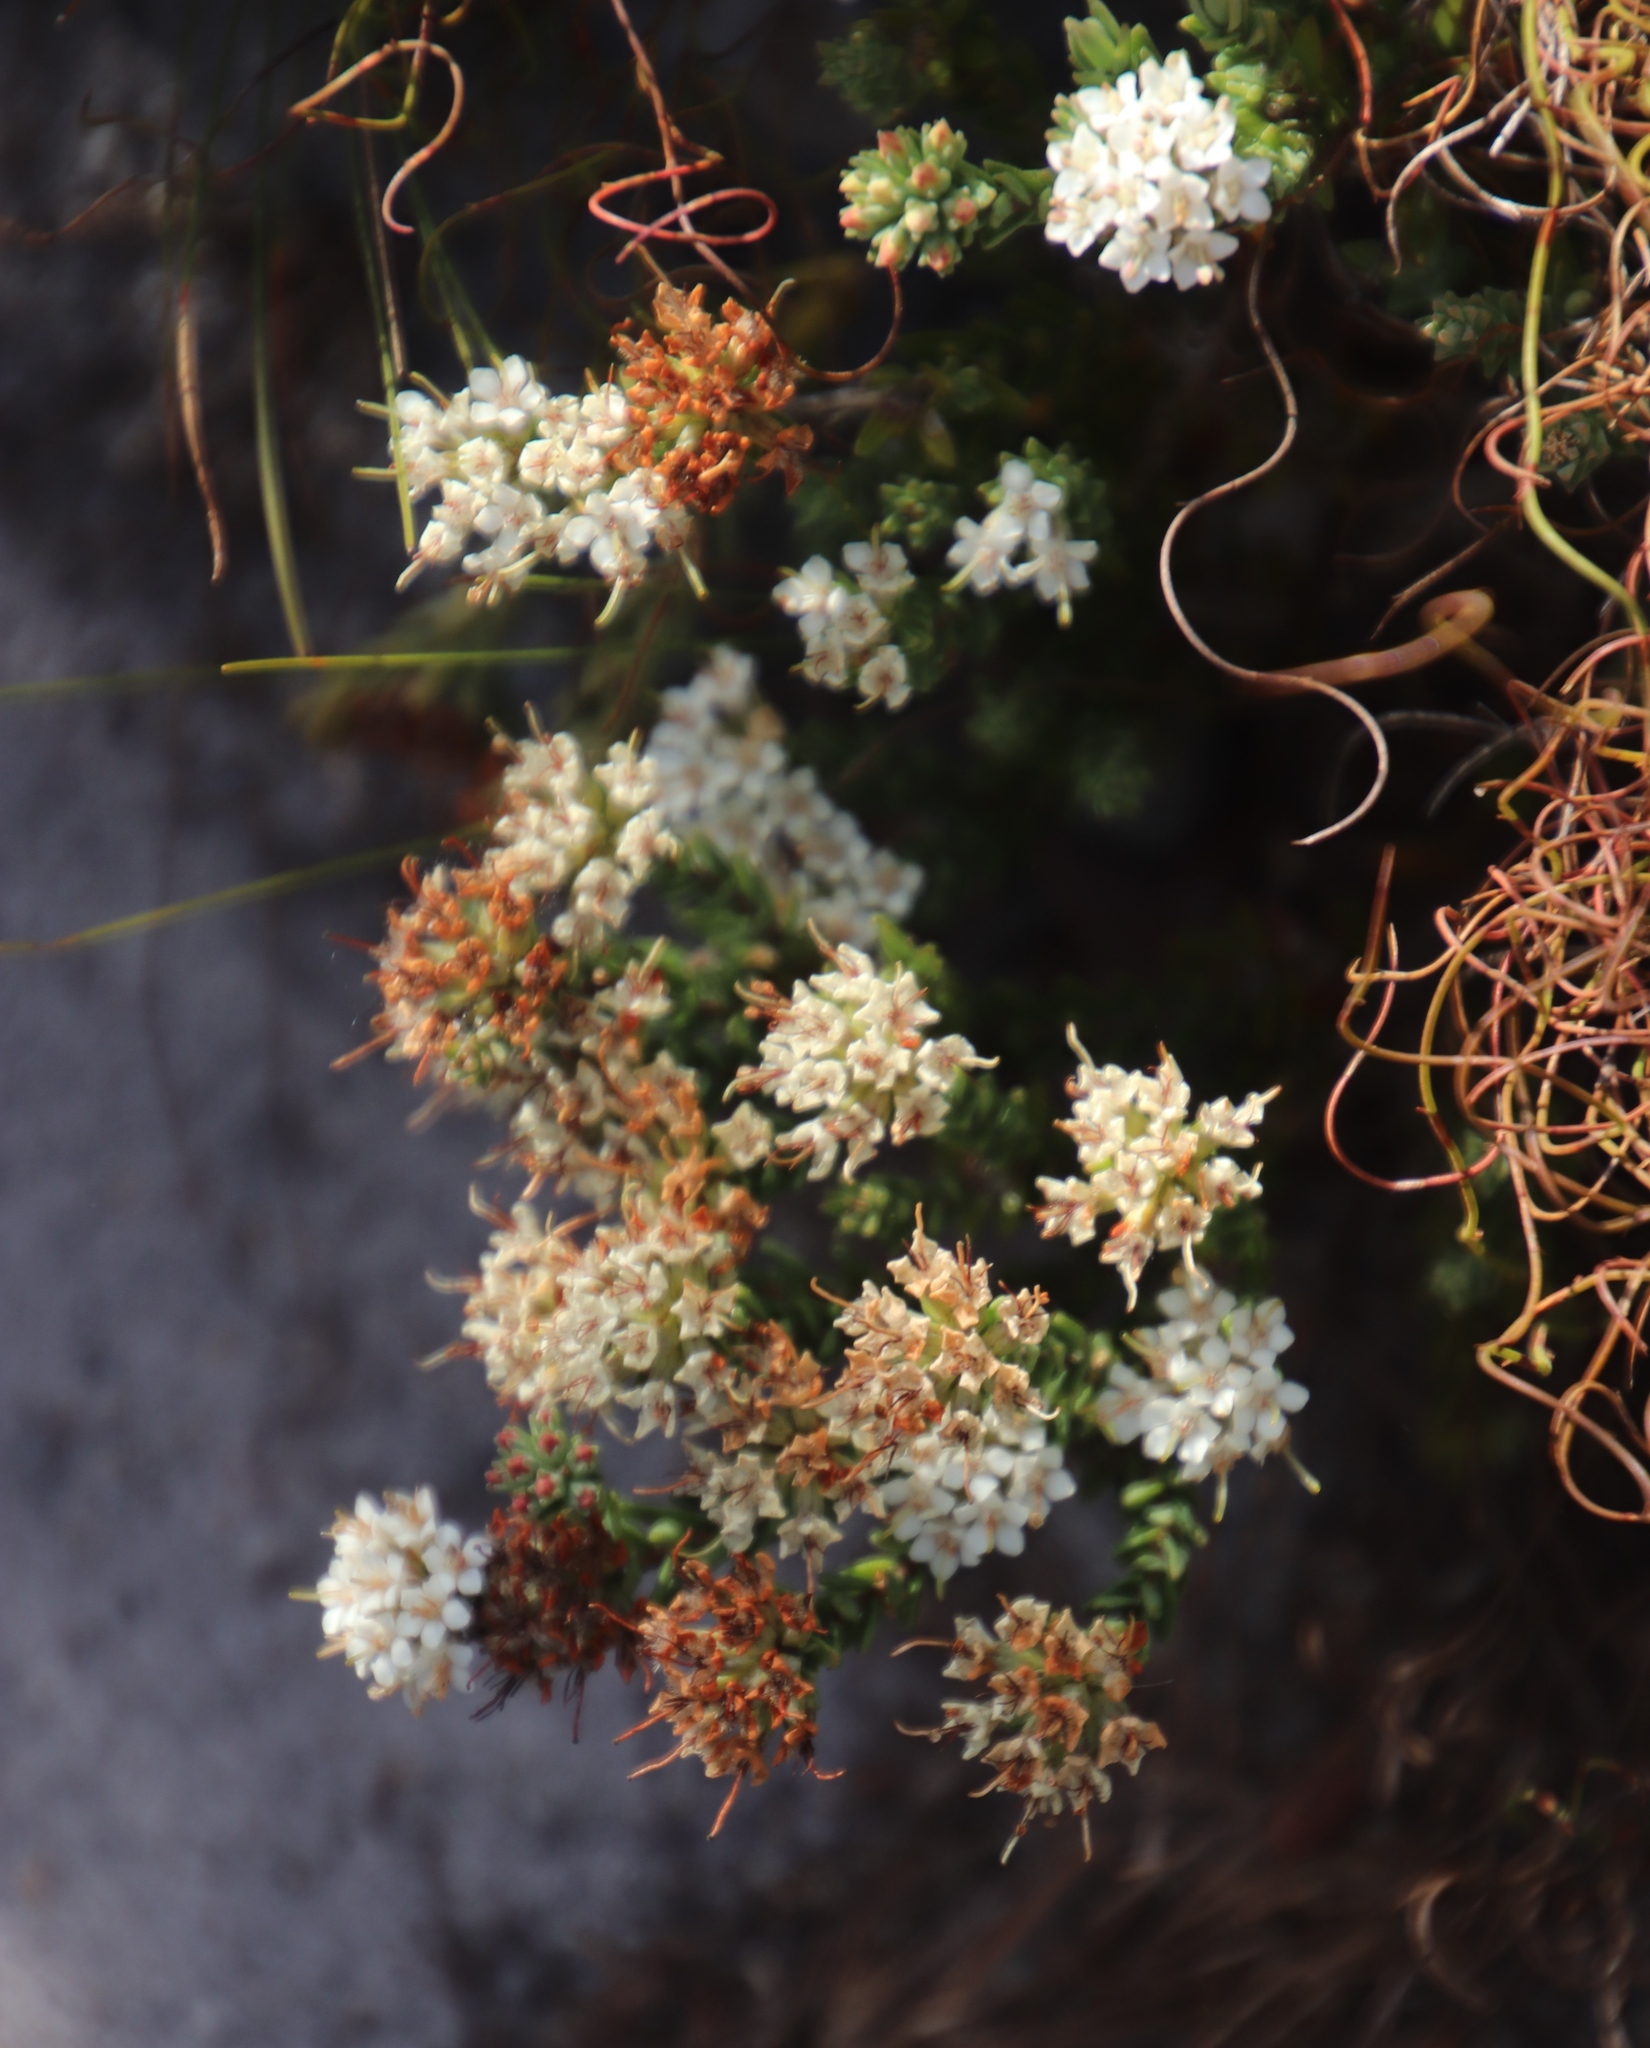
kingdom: Plantae
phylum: Tracheophyta
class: Magnoliopsida
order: Sapindales
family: Rutaceae
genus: Macrostylis
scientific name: Macrostylis villosa
